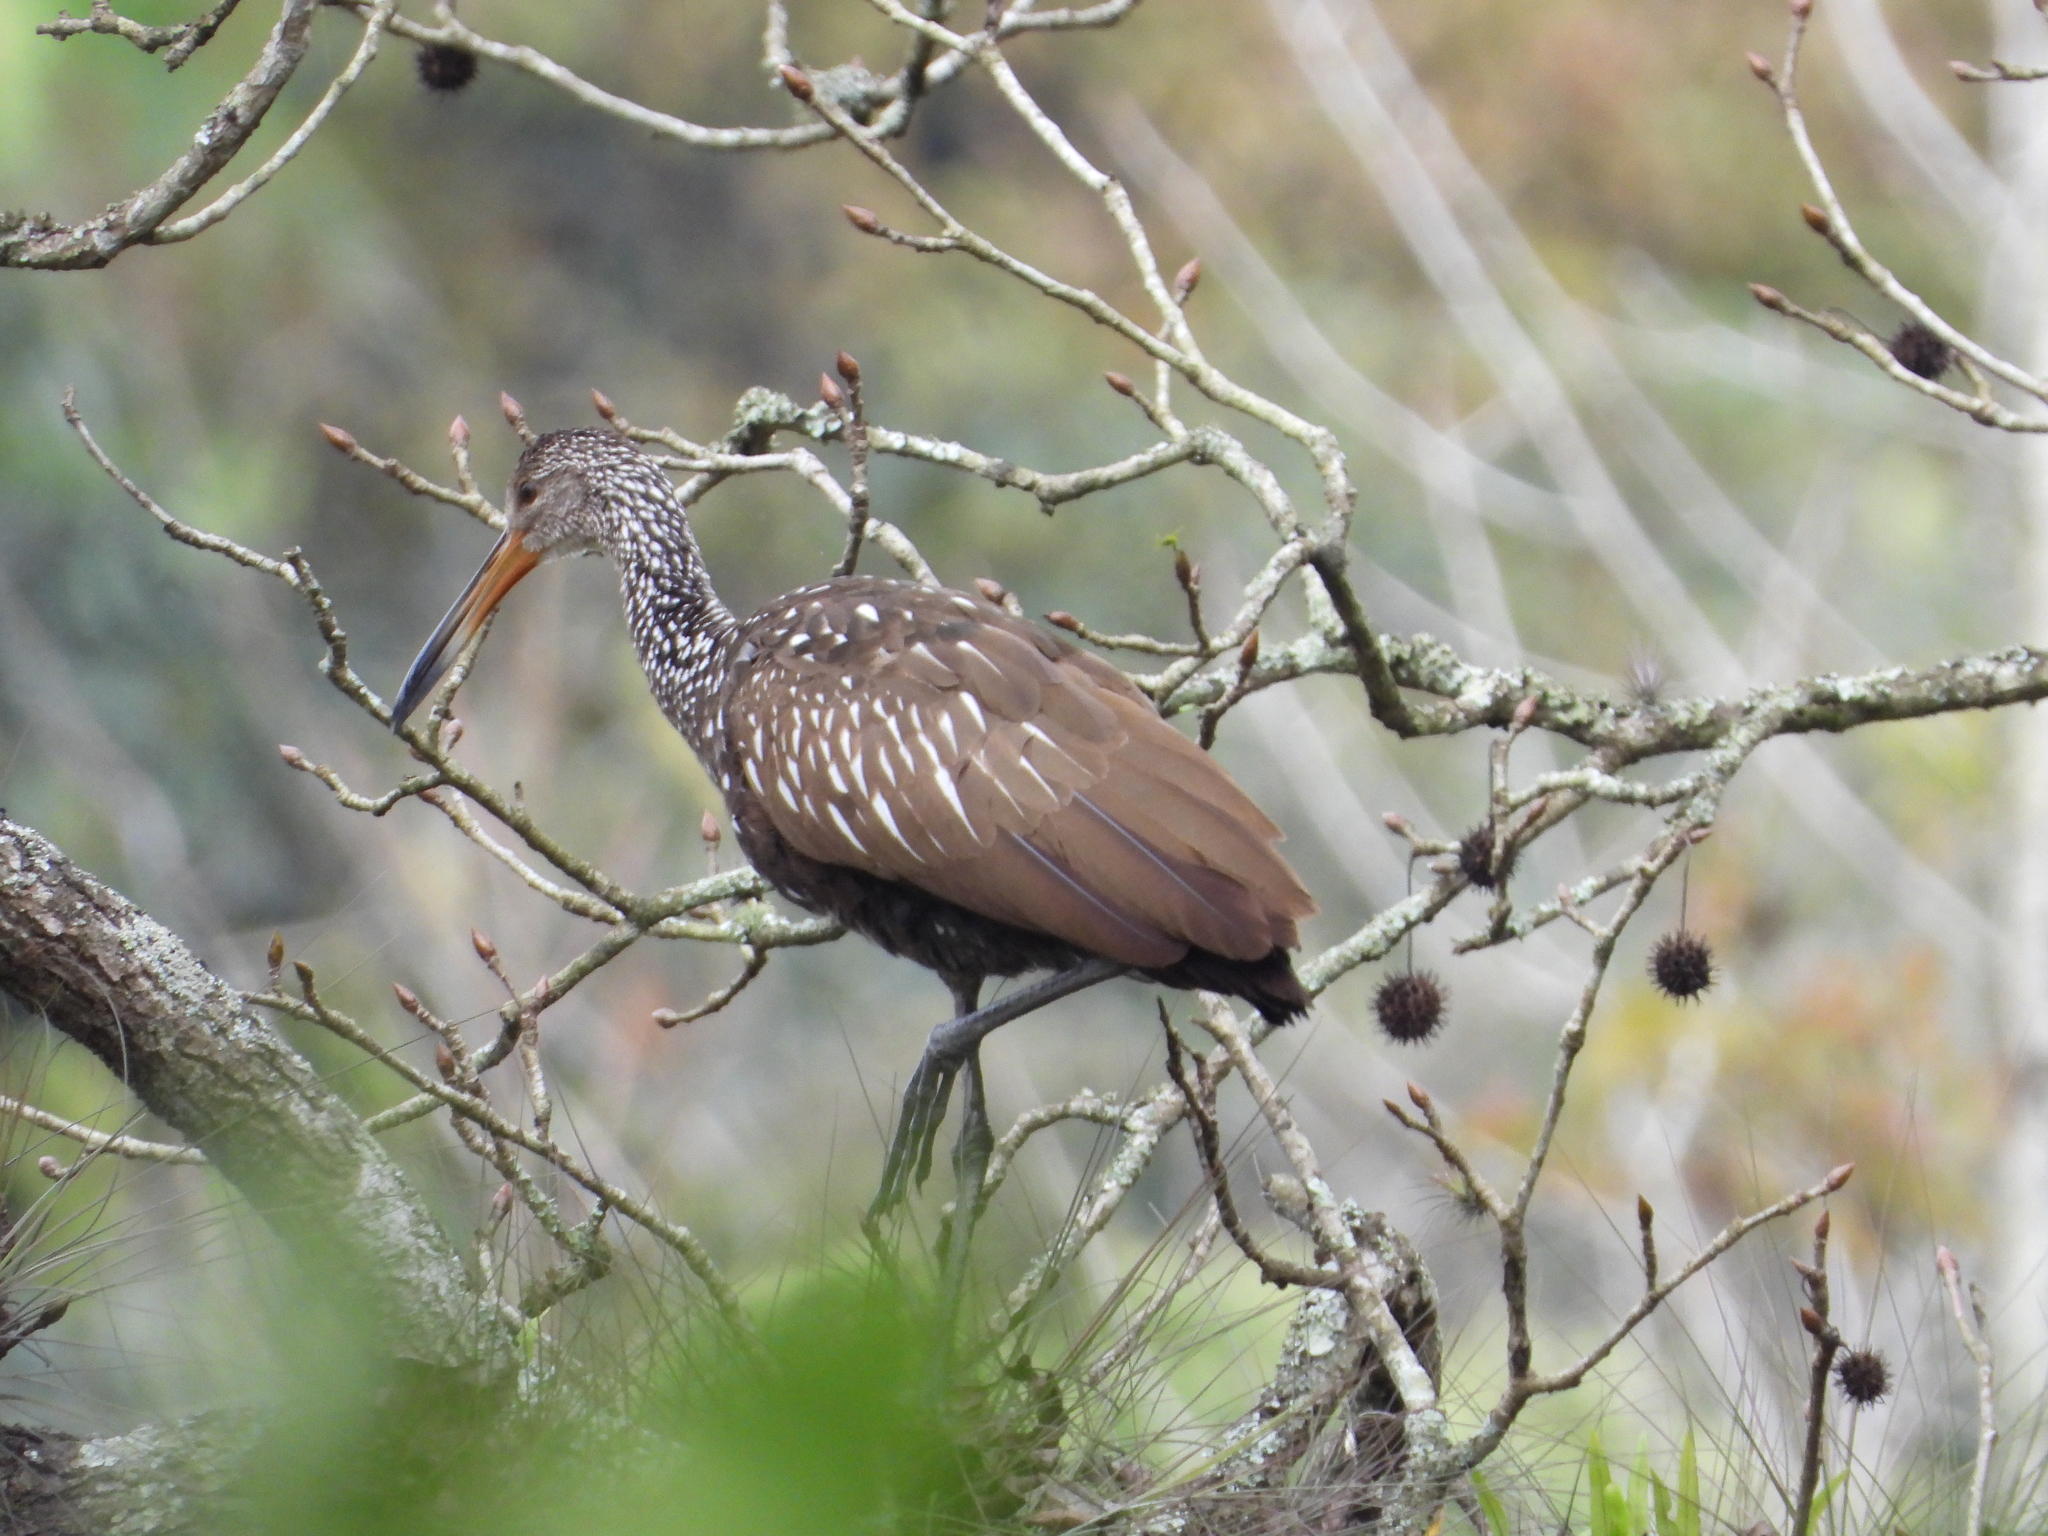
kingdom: Animalia
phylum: Chordata
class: Aves
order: Gruiformes
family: Aramidae
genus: Aramus
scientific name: Aramus guarauna
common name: Limpkin
